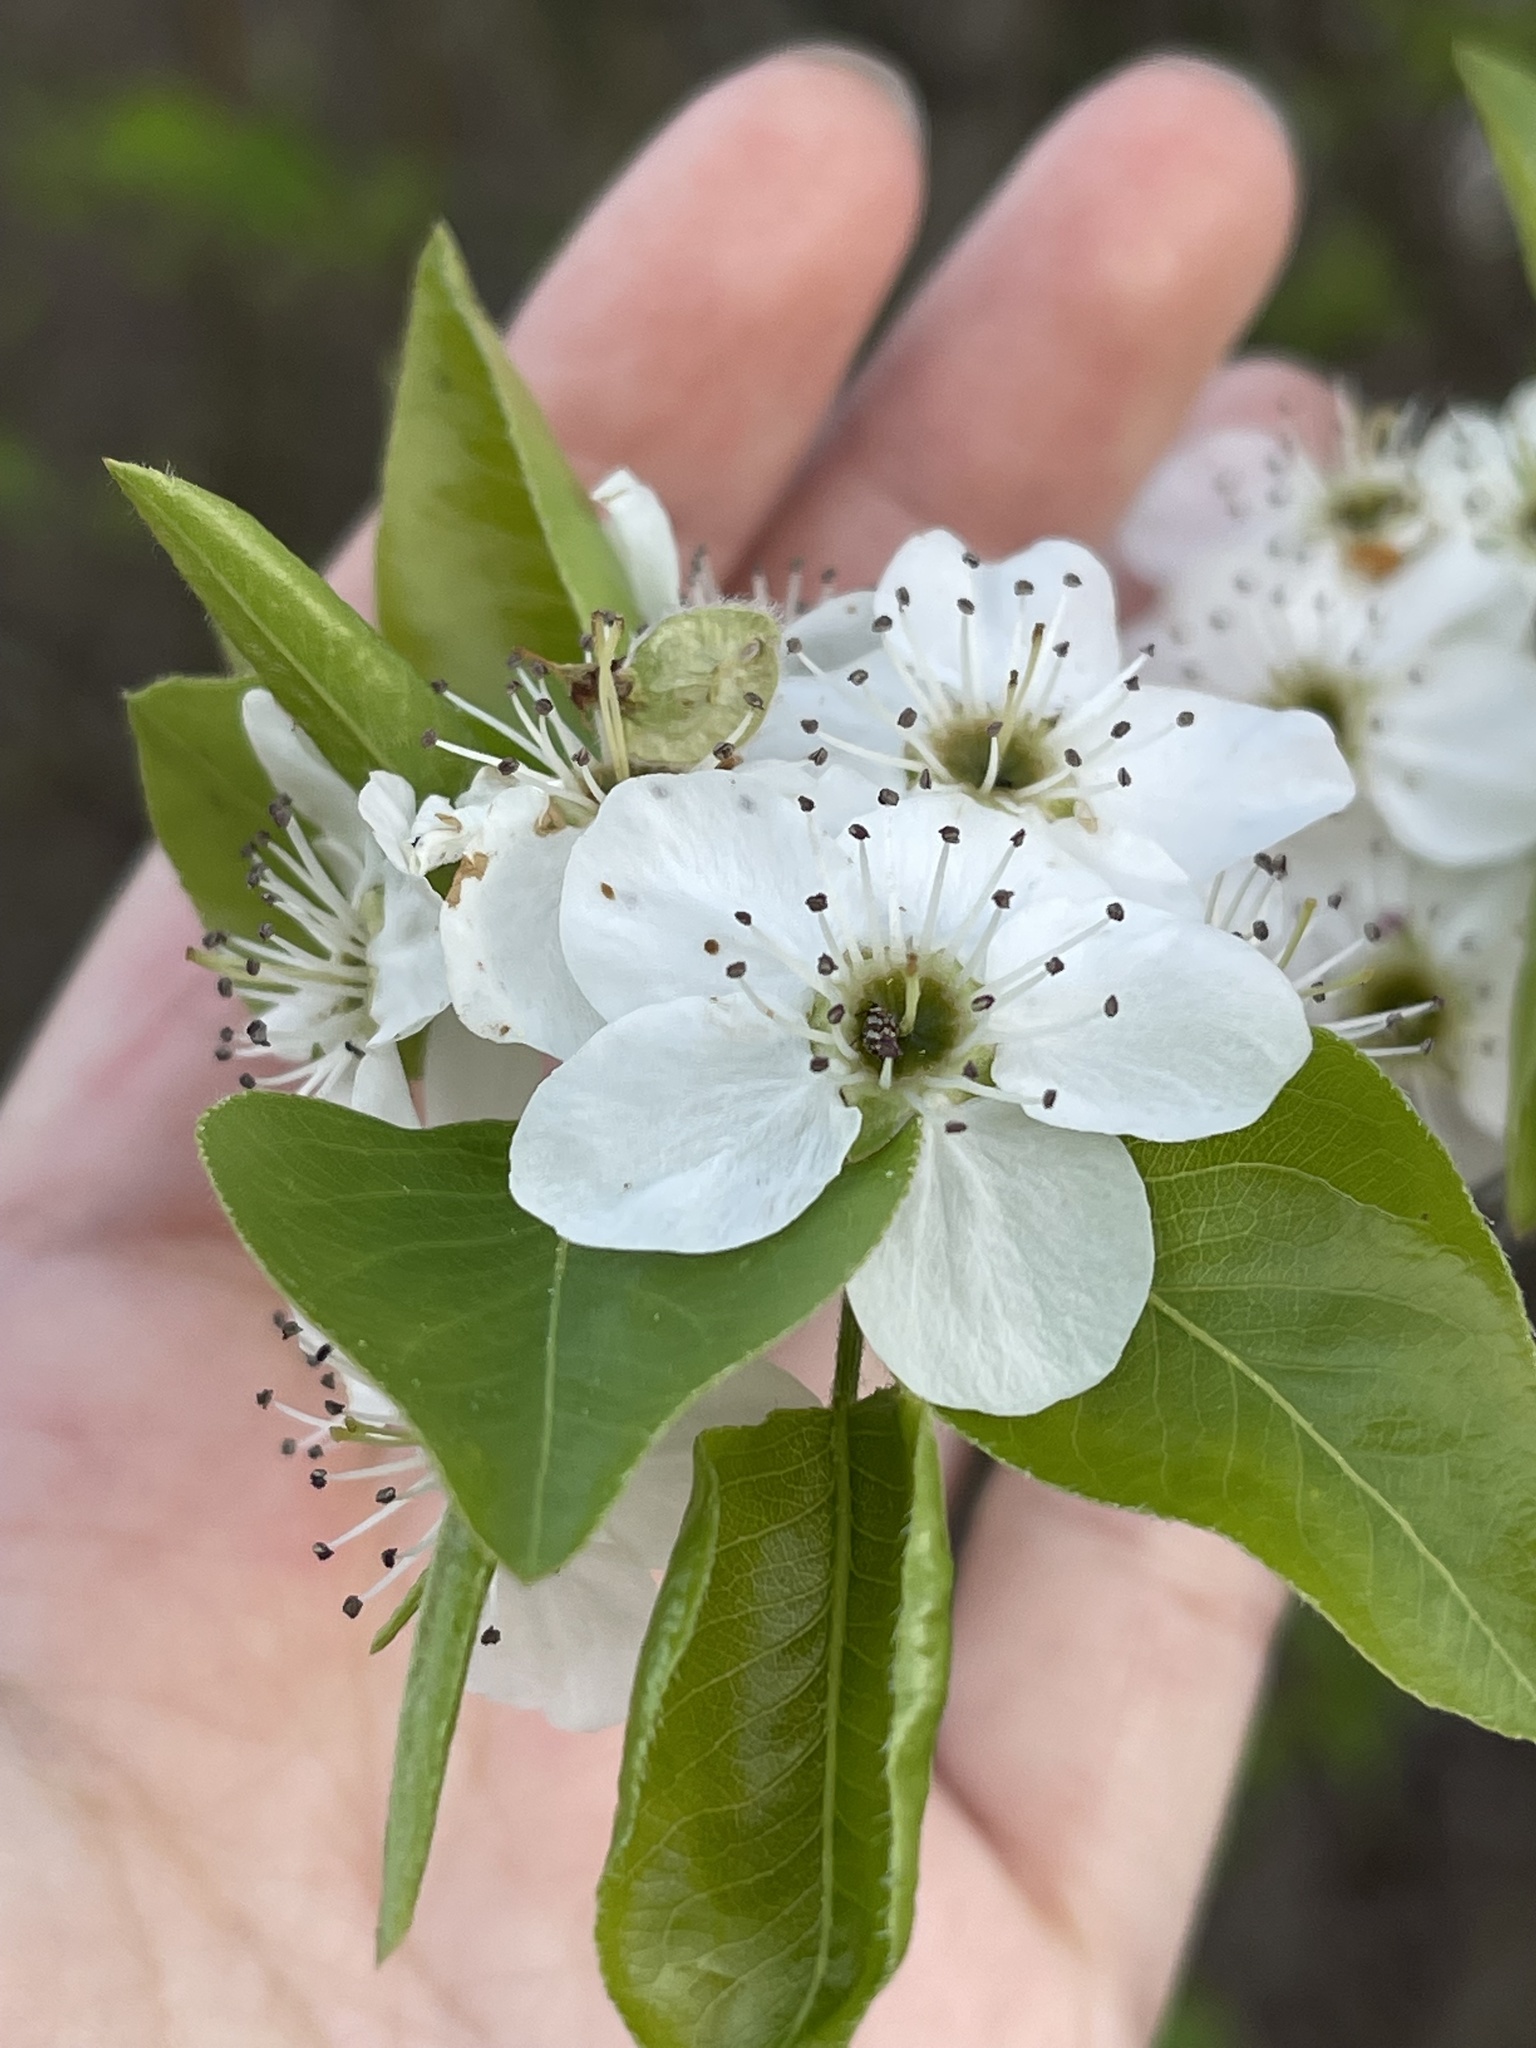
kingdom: Plantae
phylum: Tracheophyta
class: Magnoliopsida
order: Rosales
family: Rosaceae
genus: Pyrus
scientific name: Pyrus calleryana
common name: Callery pear
